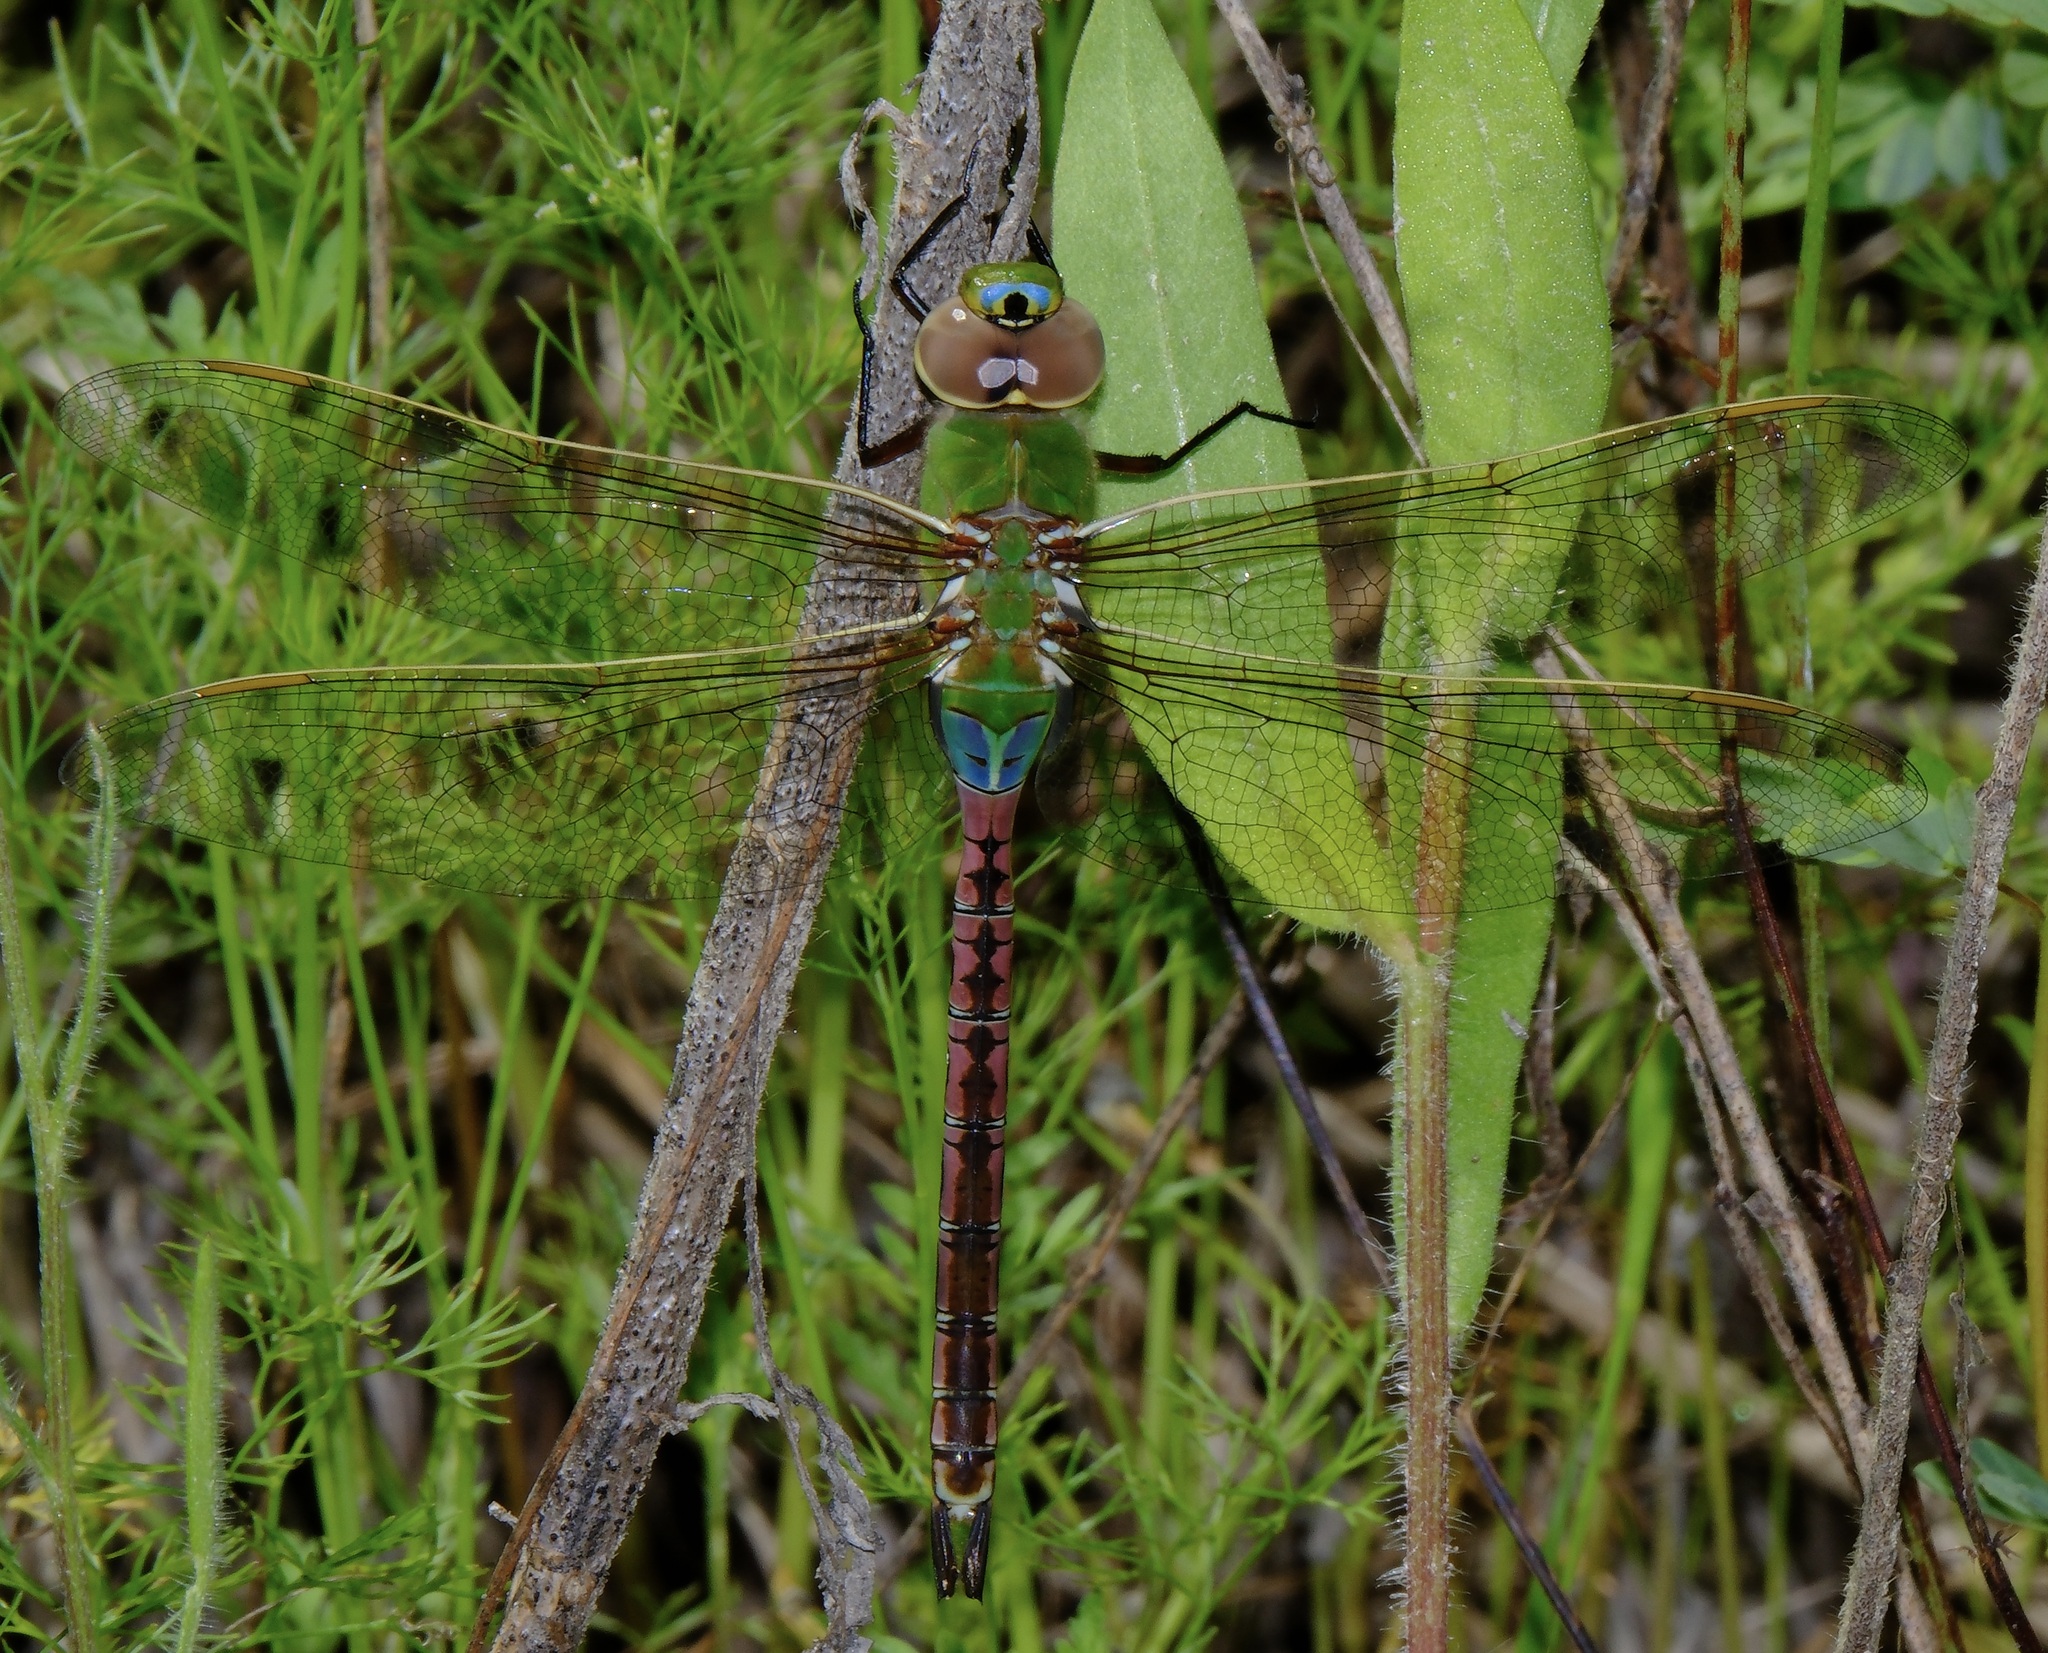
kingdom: Animalia
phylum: Arthropoda
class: Insecta
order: Odonata
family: Aeshnidae
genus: Anax
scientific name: Anax junius
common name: Common green darner
